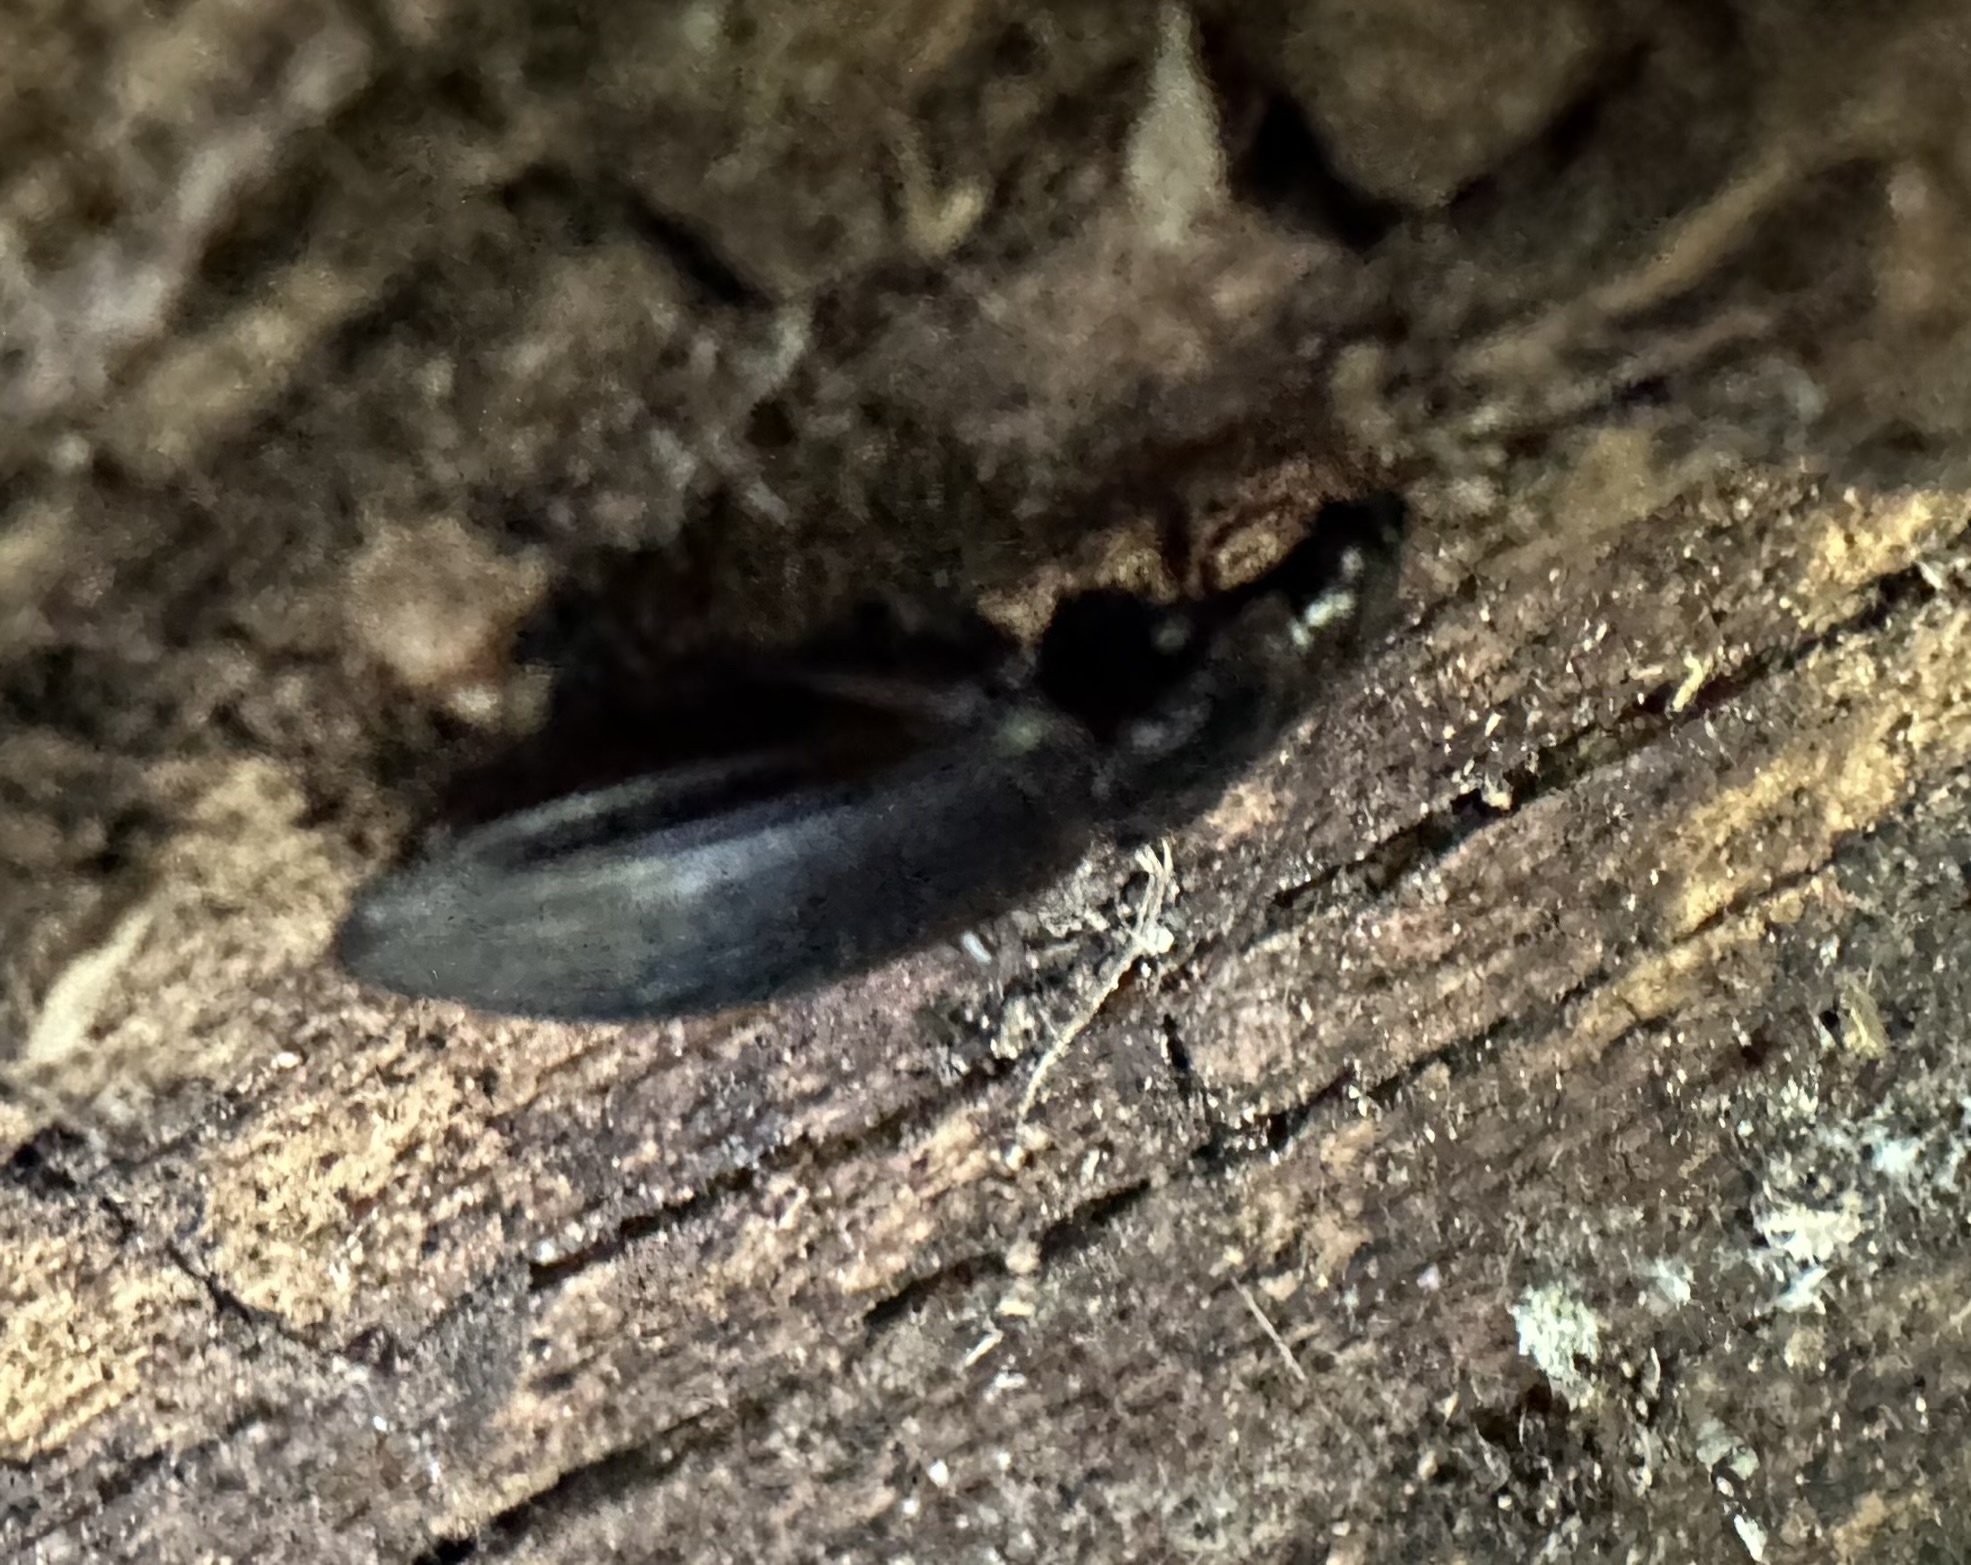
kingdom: Animalia
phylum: Arthropoda
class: Insecta
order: Coleoptera
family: Carabidae
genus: Platynus
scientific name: Platynus assimilis
